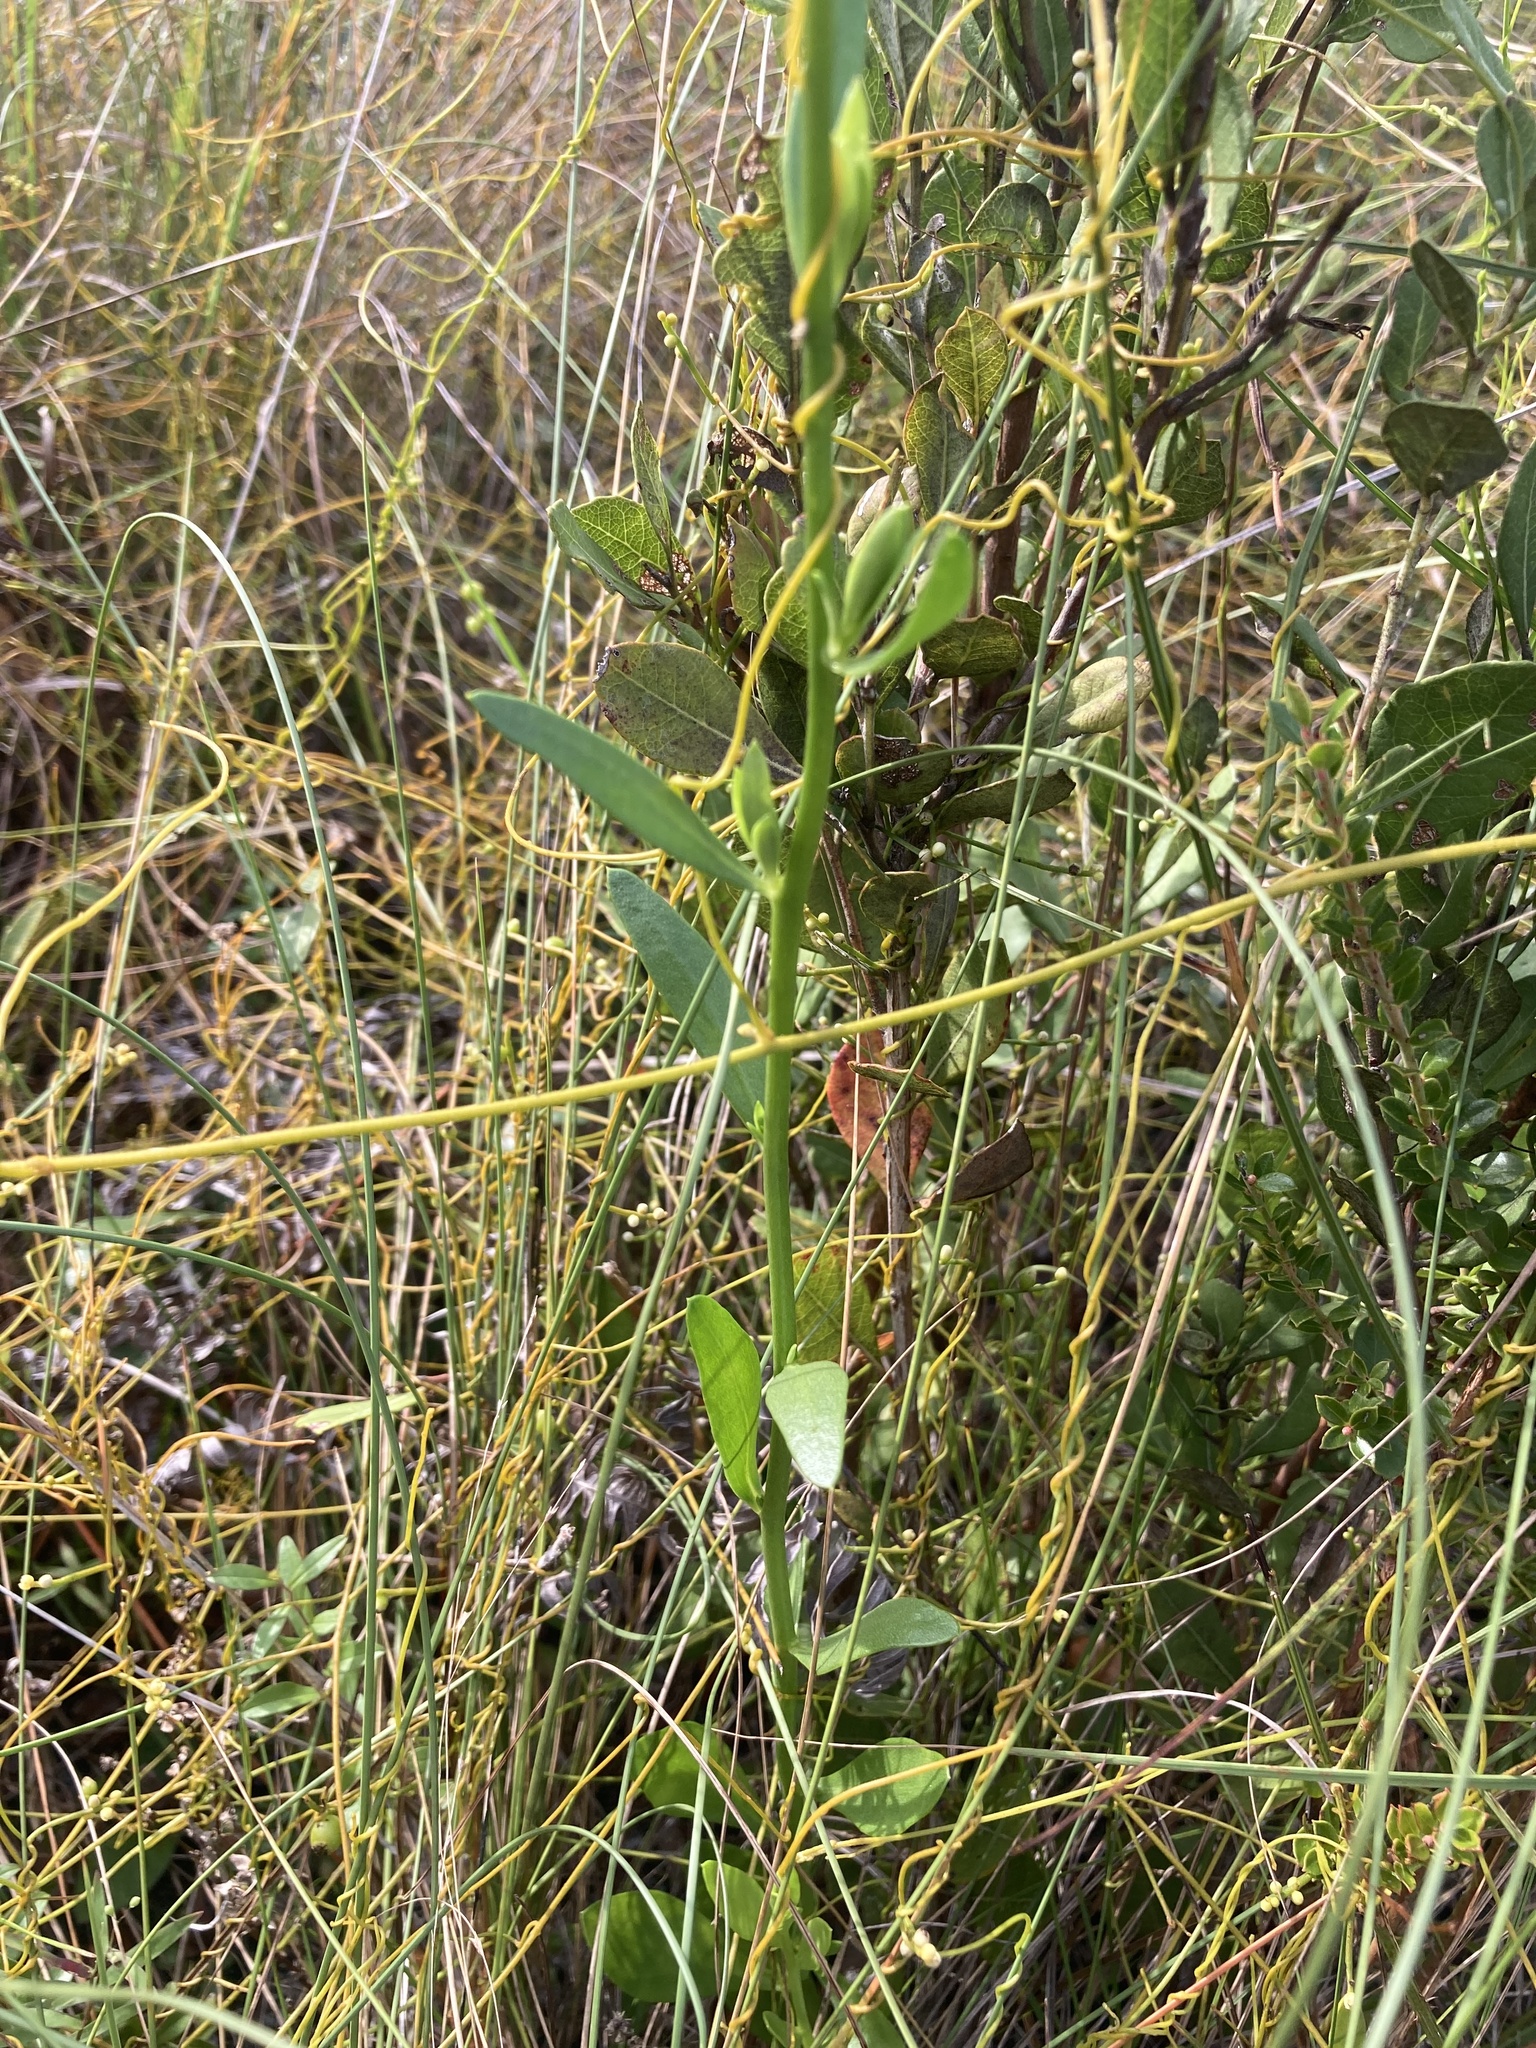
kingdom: Plantae
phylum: Tracheophyta
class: Magnoliopsida
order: Fabales
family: Polygalaceae
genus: Polygala
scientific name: Polygala rugelii
